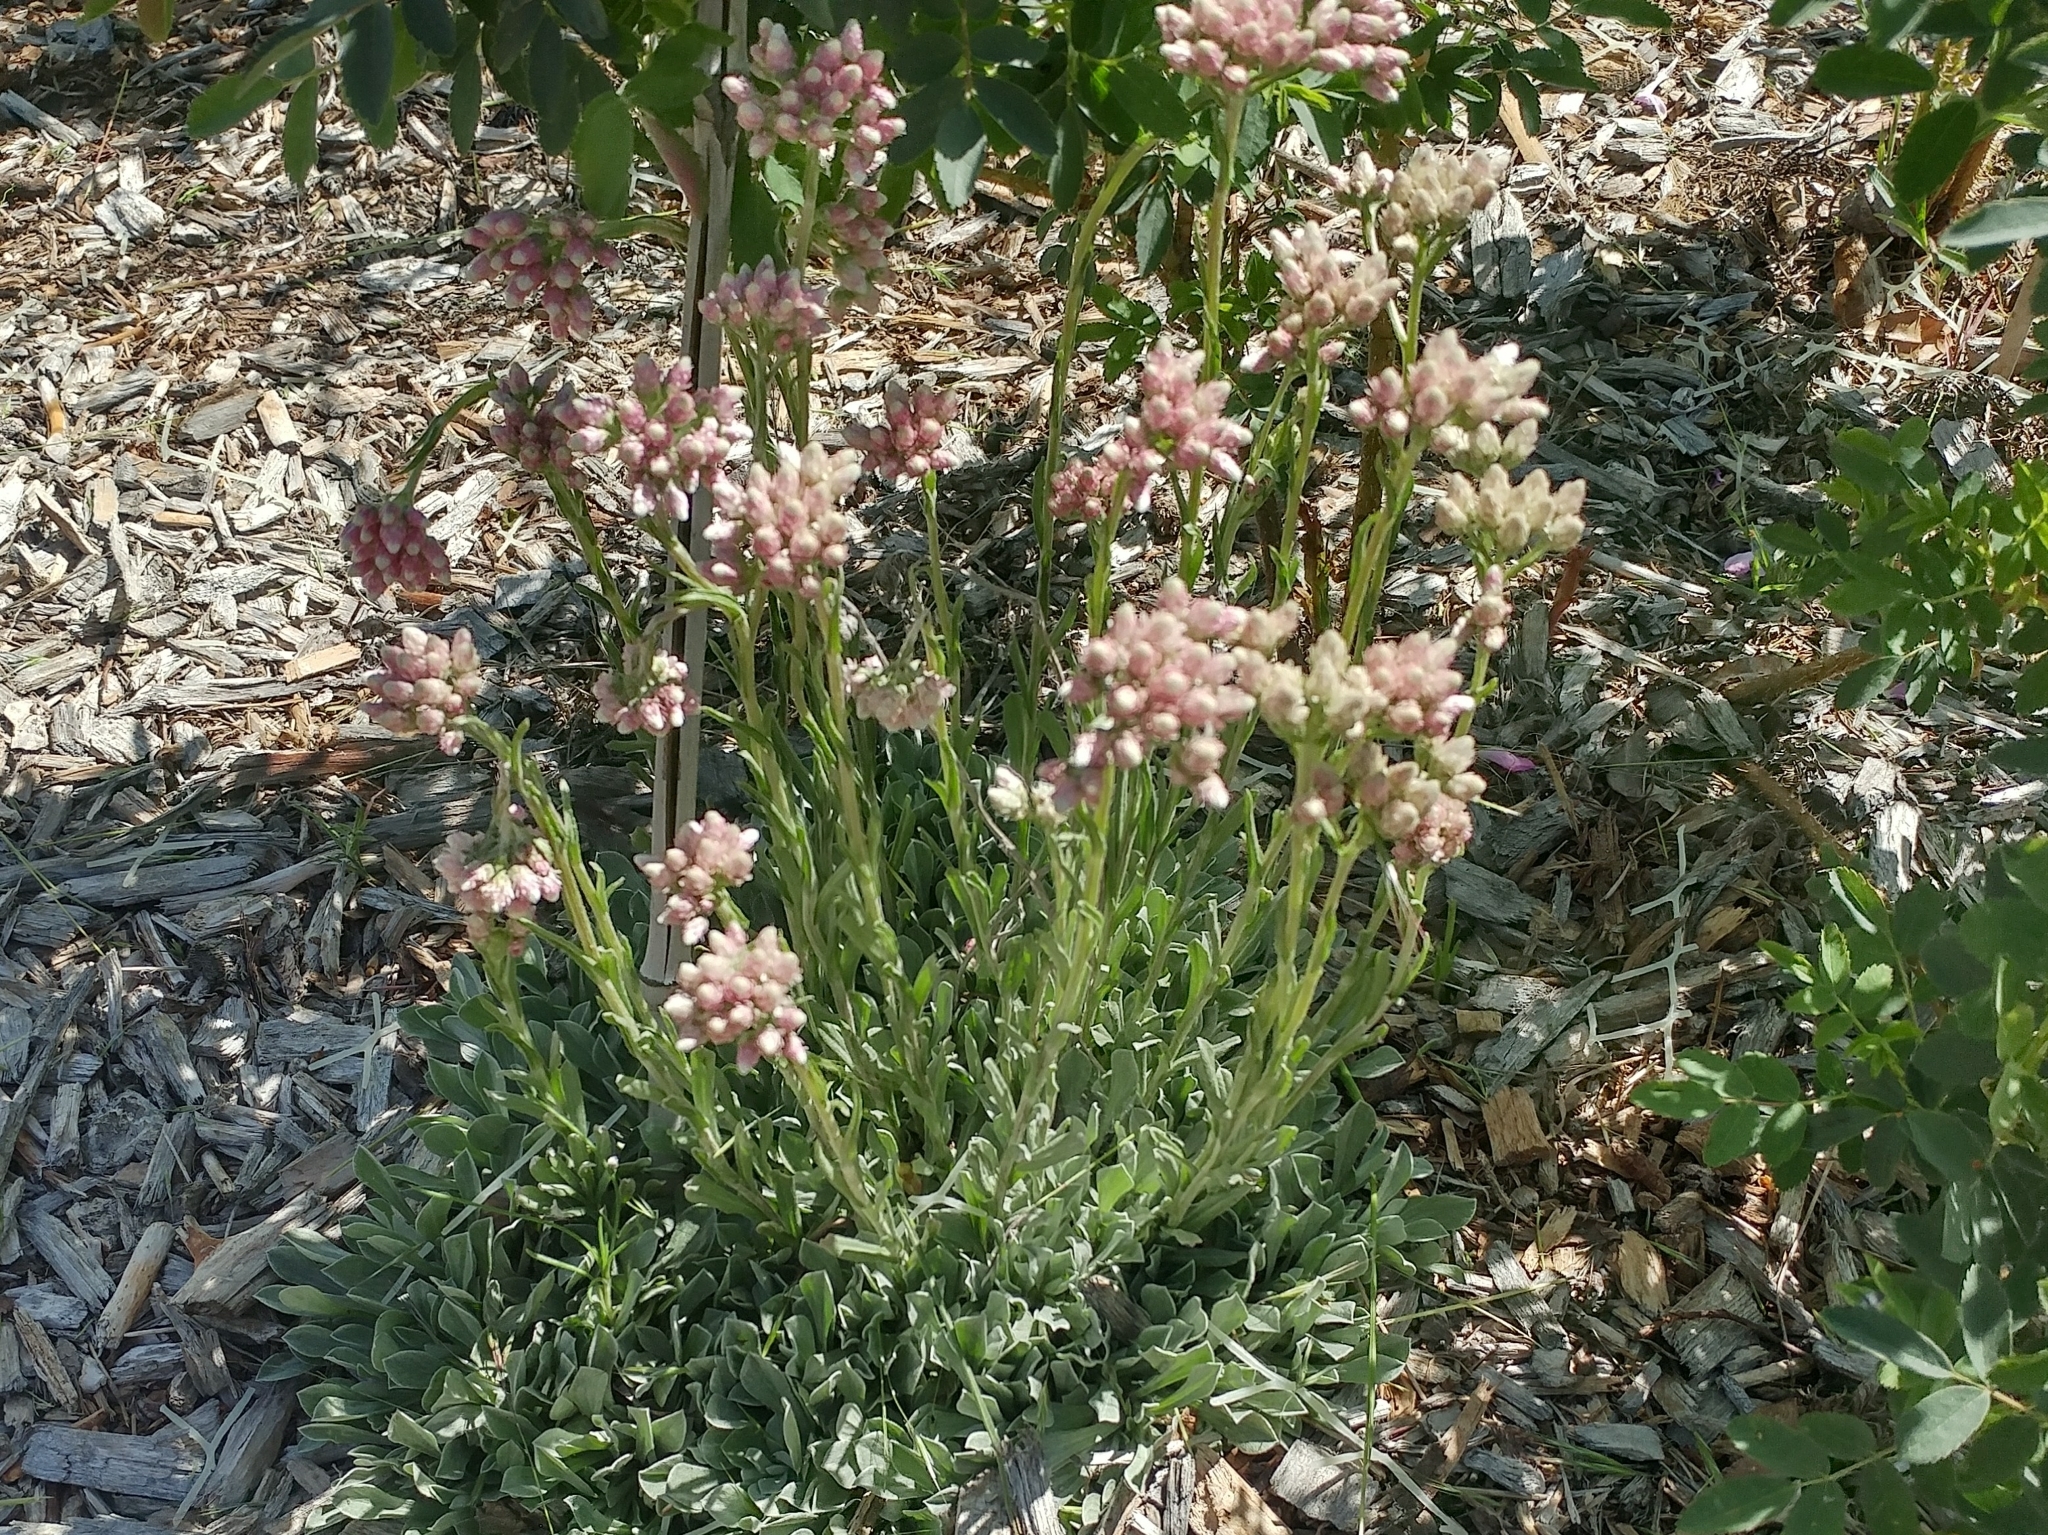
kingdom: Plantae
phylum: Tracheophyta
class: Magnoliopsida
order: Asterales
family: Asteraceae
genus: Antennaria
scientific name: Antennaria rosea
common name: Rosy pussytoes
